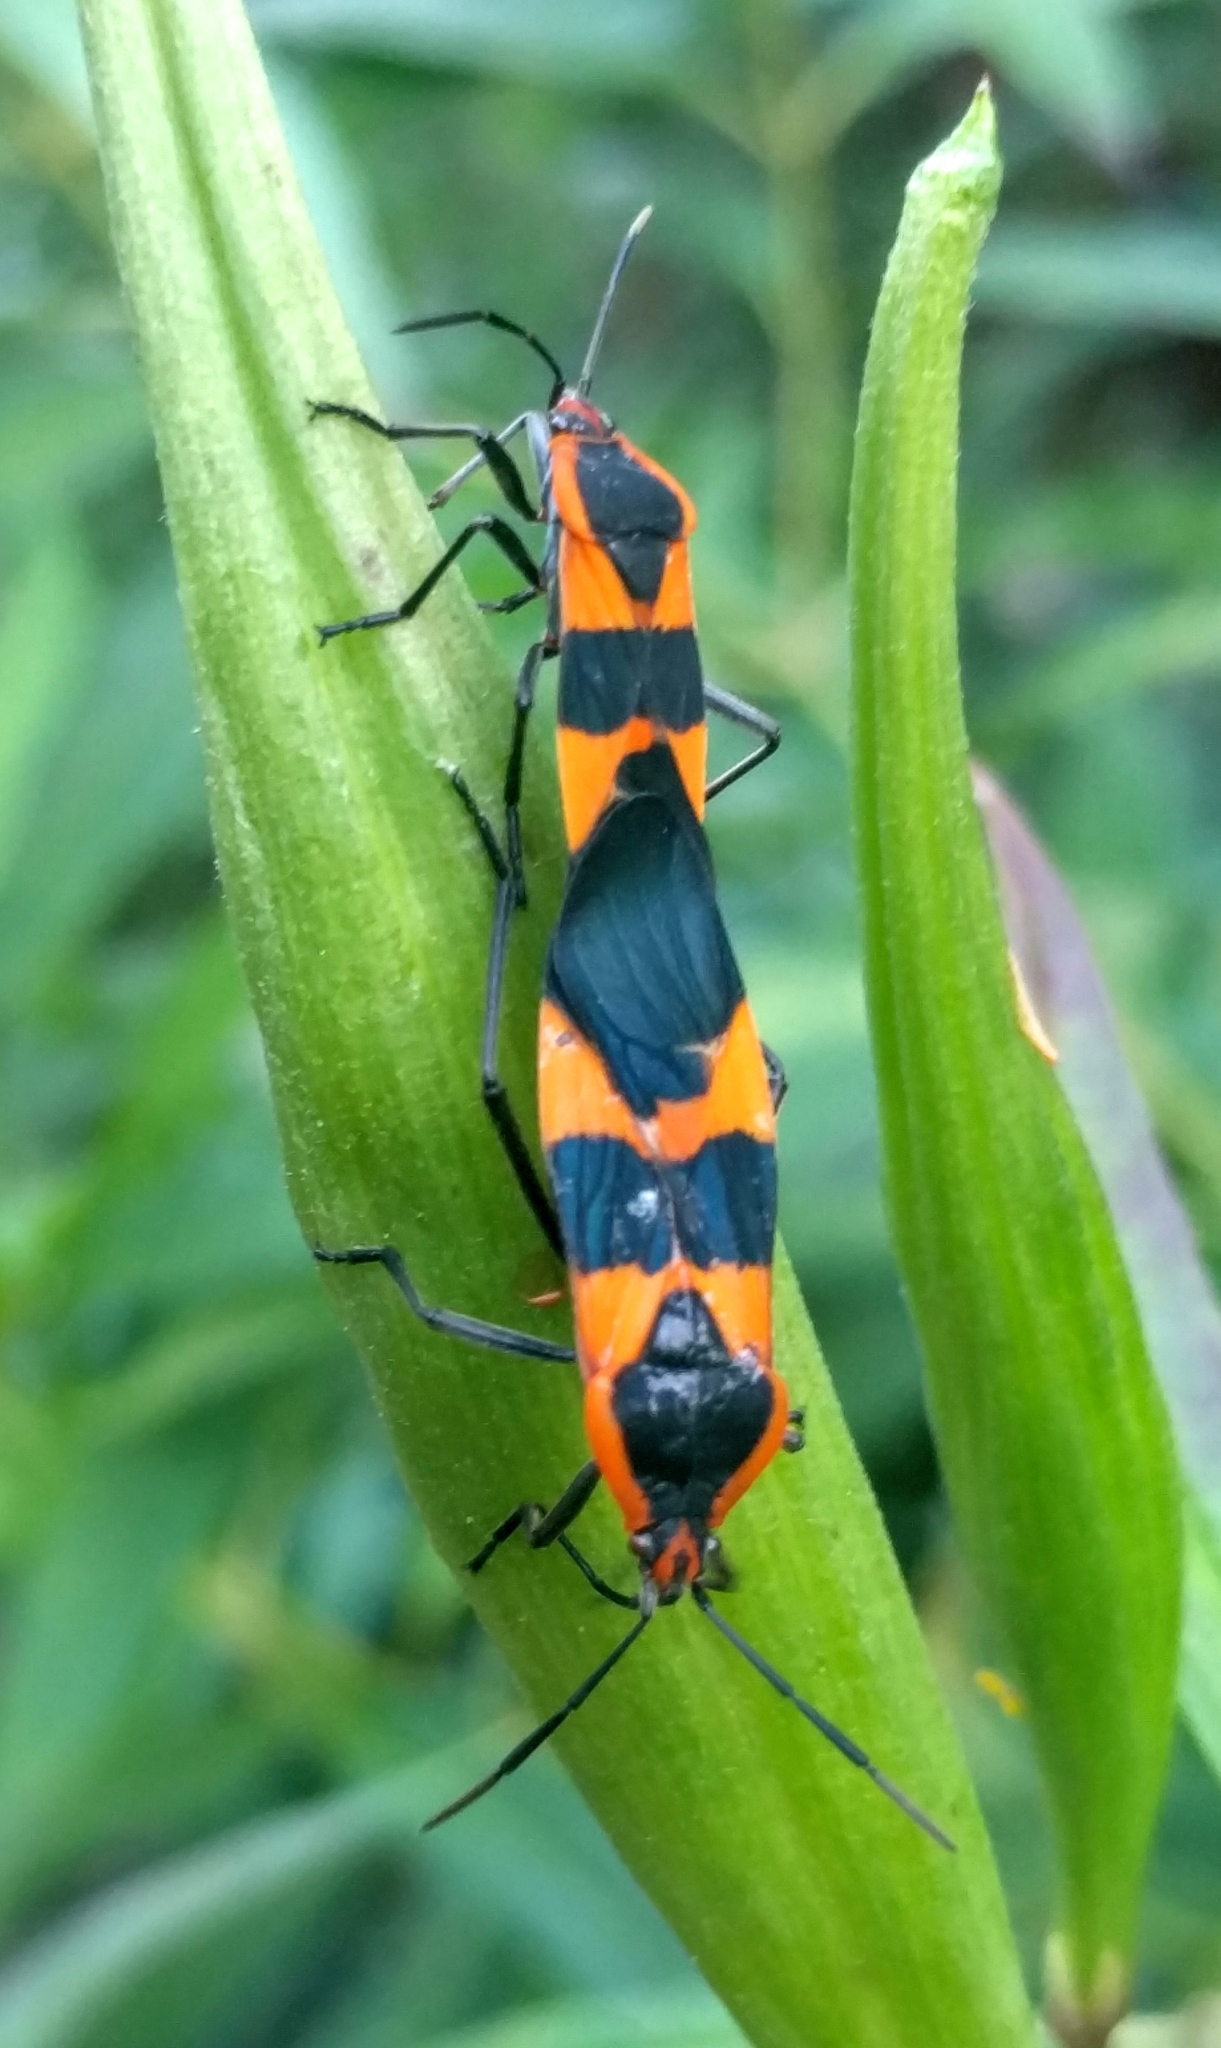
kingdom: Animalia
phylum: Arthropoda
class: Insecta
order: Hemiptera
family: Lygaeidae
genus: Oncopeltus
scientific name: Oncopeltus fasciatus
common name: Large milkweed bug
